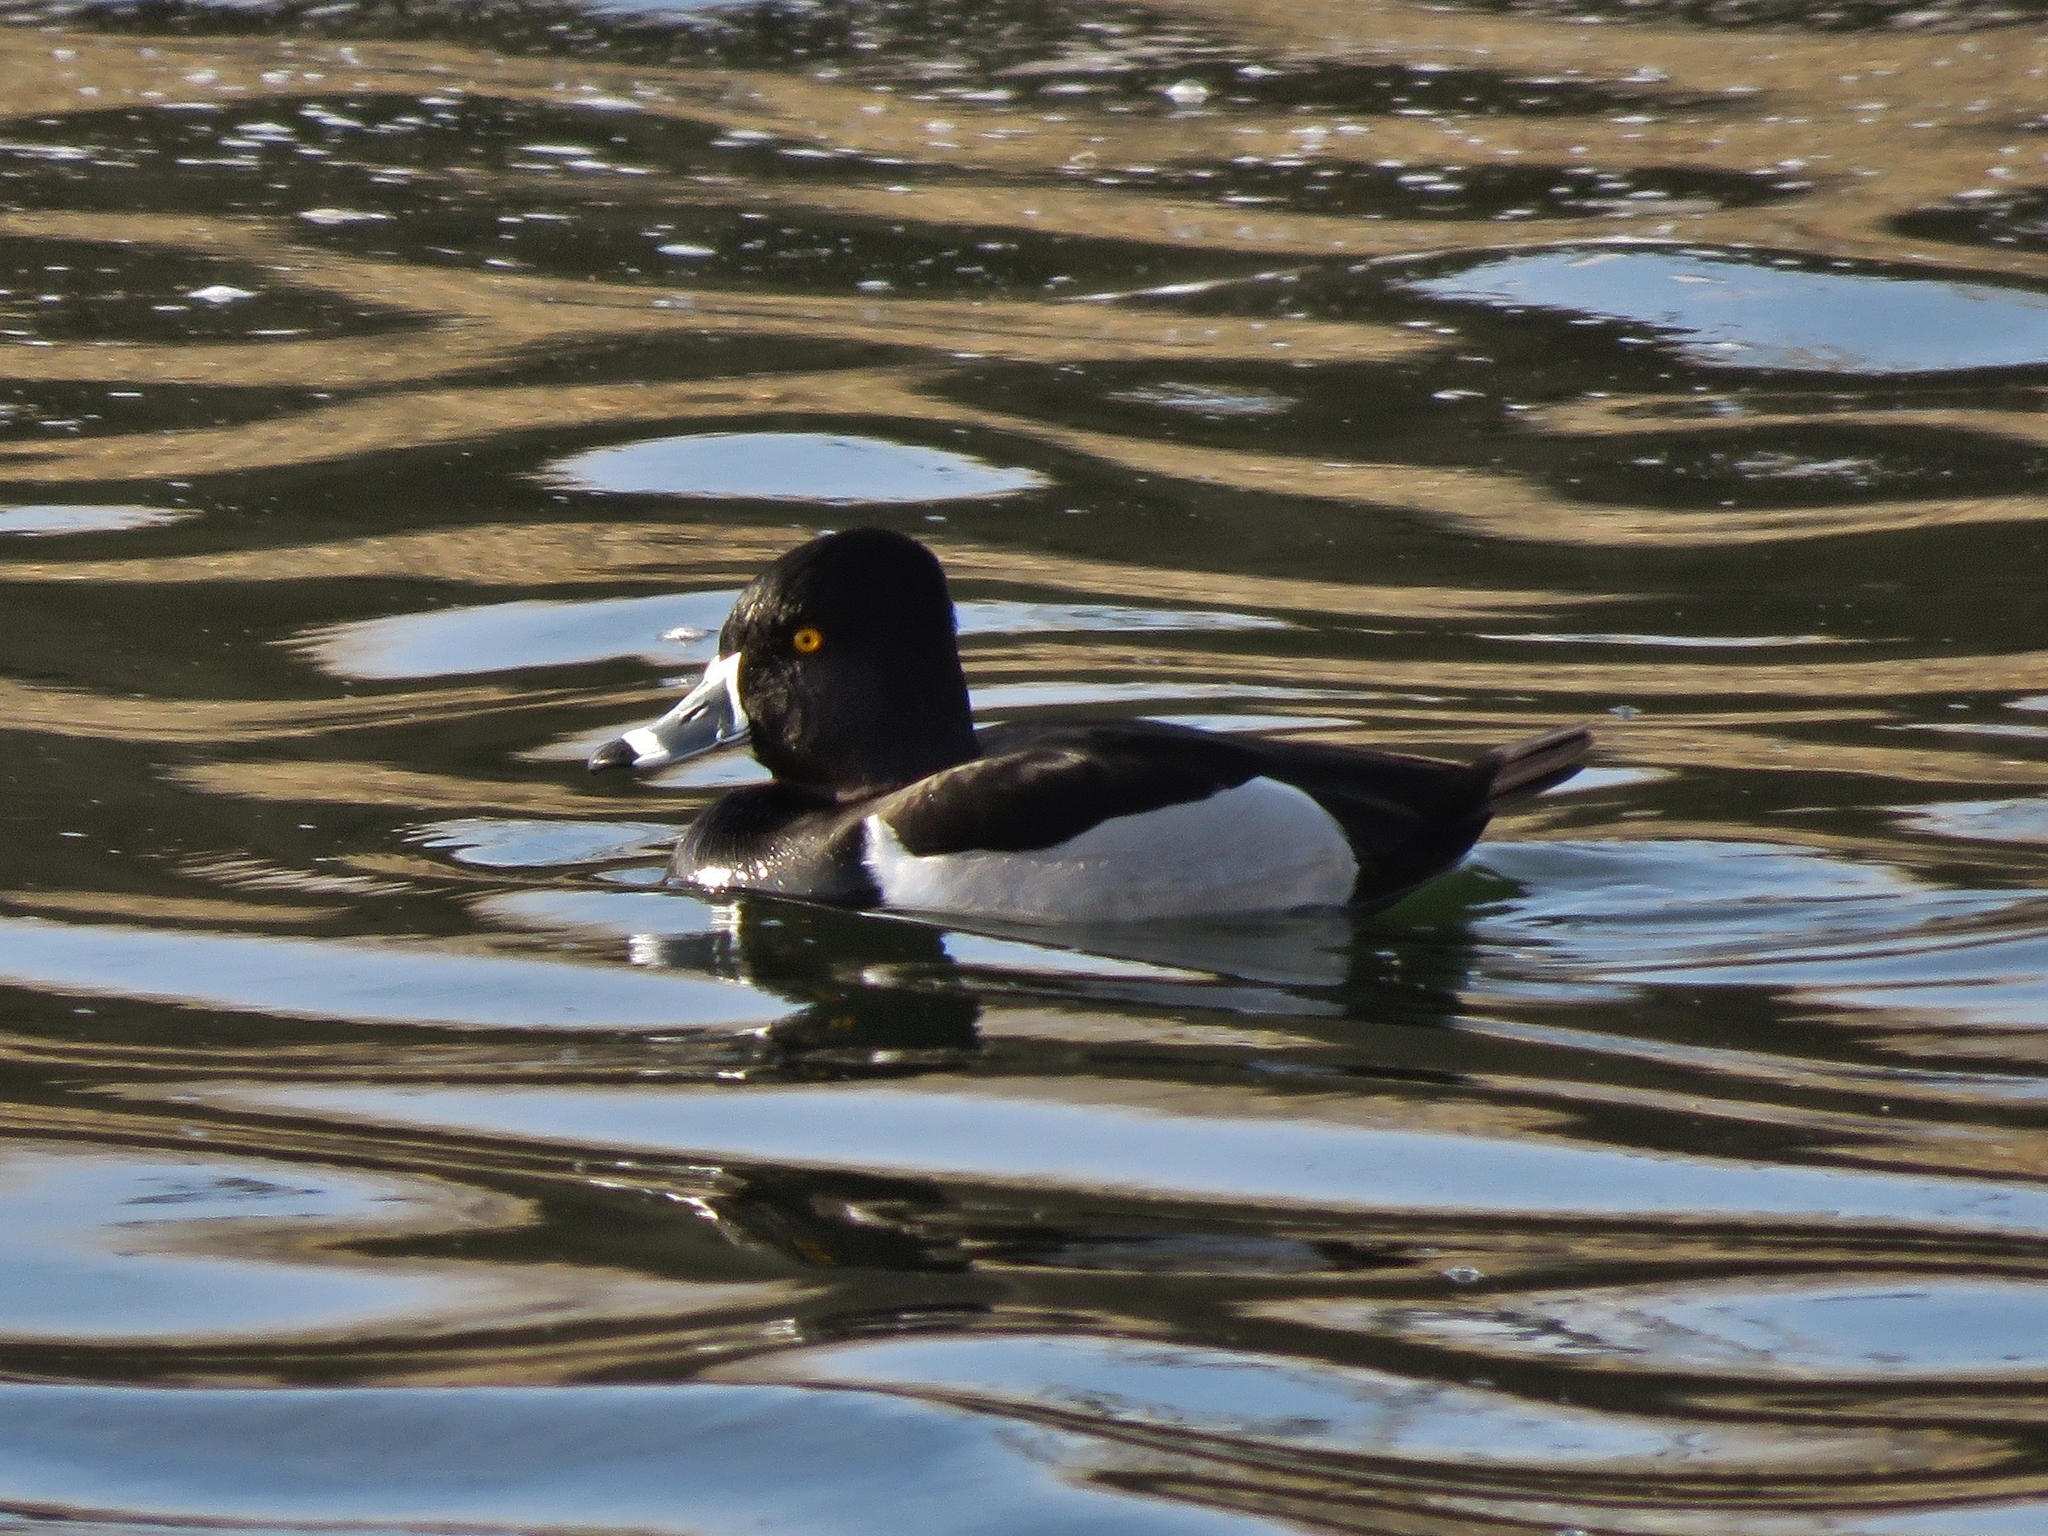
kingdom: Animalia
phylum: Chordata
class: Aves
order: Anseriformes
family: Anatidae
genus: Aythya
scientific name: Aythya collaris
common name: Ring-necked duck
